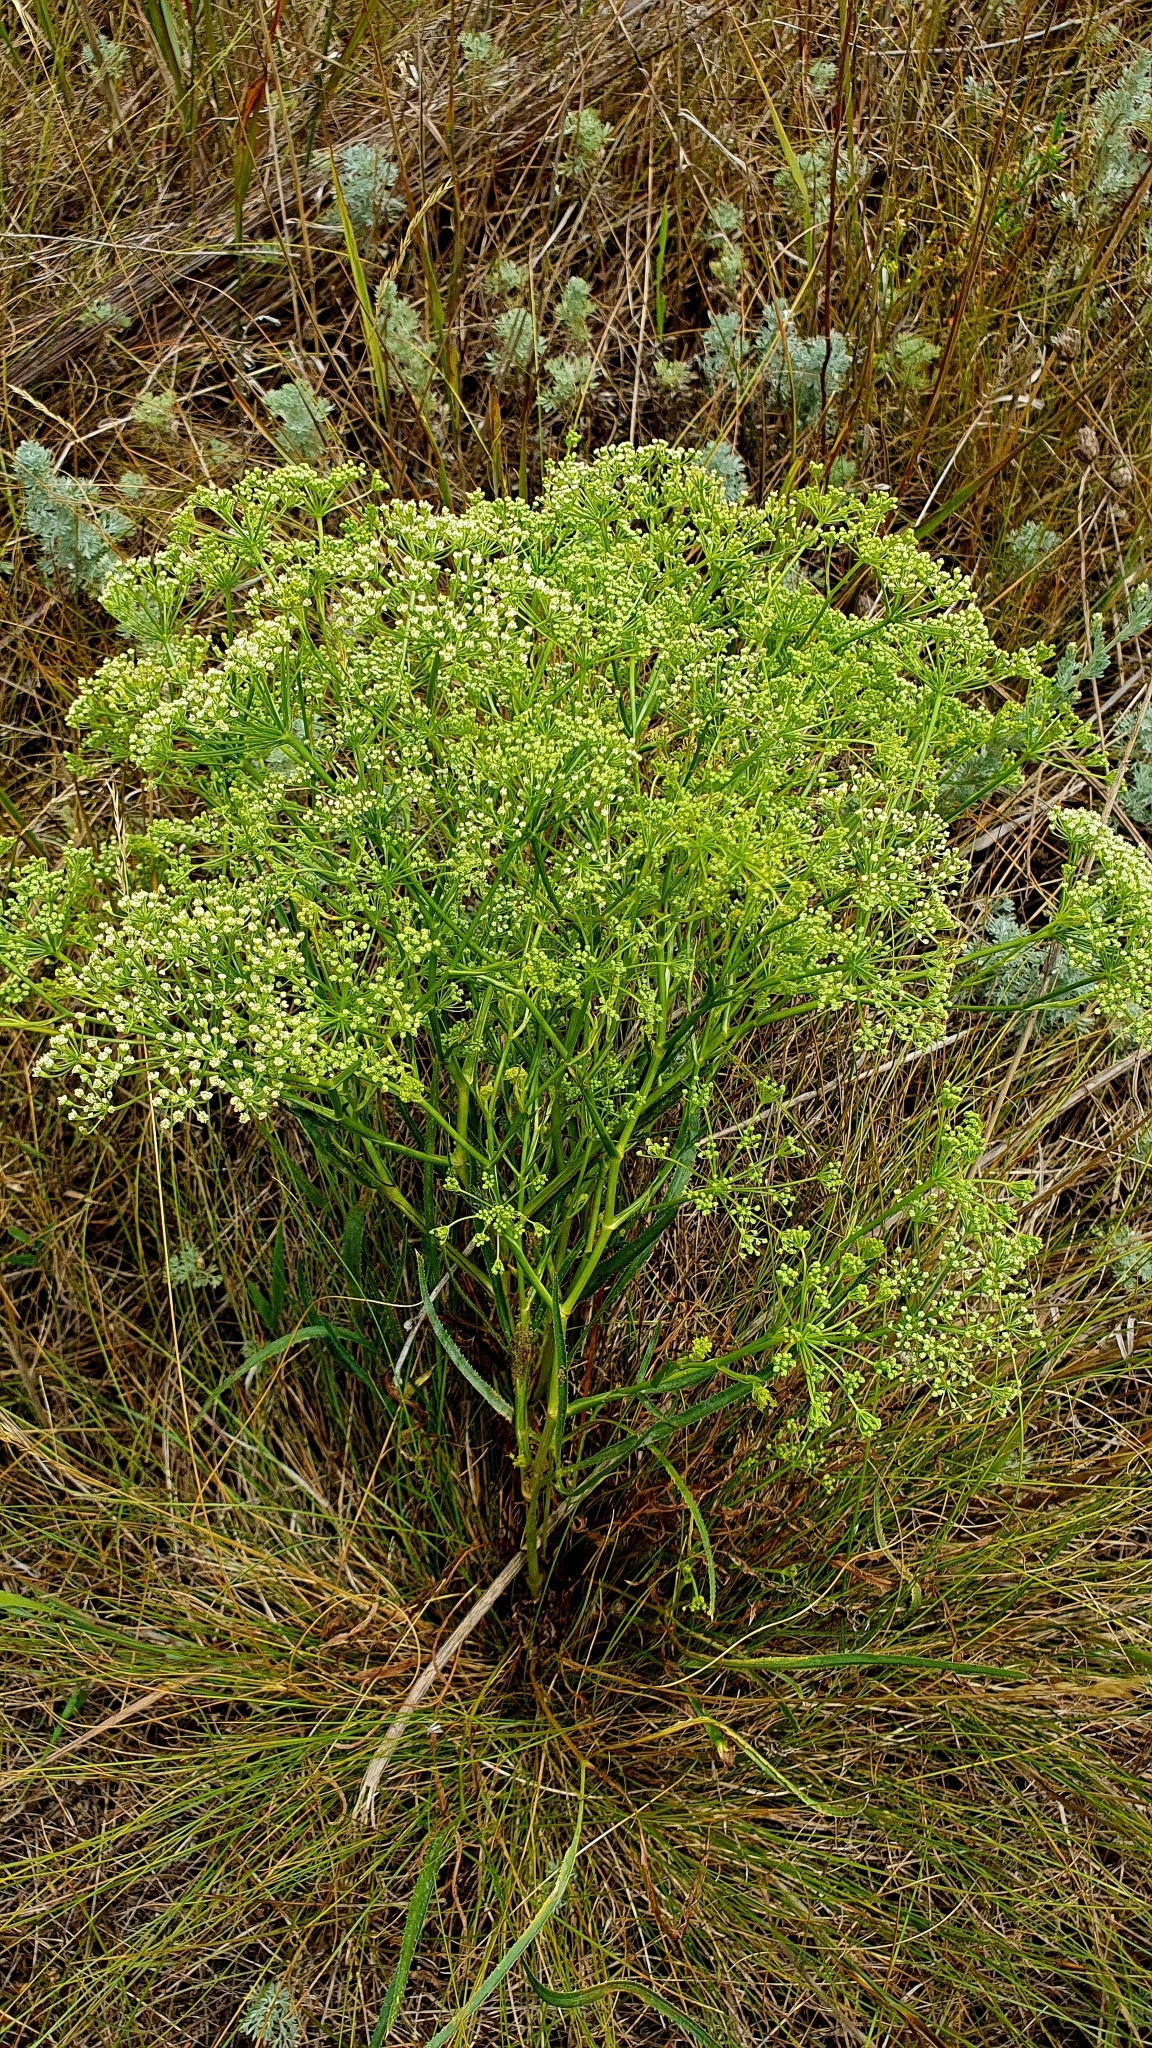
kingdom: Plantae
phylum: Tracheophyta
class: Magnoliopsida
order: Apiales
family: Apiaceae
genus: Falcaria
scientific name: Falcaria vulgaris
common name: Longleaf
